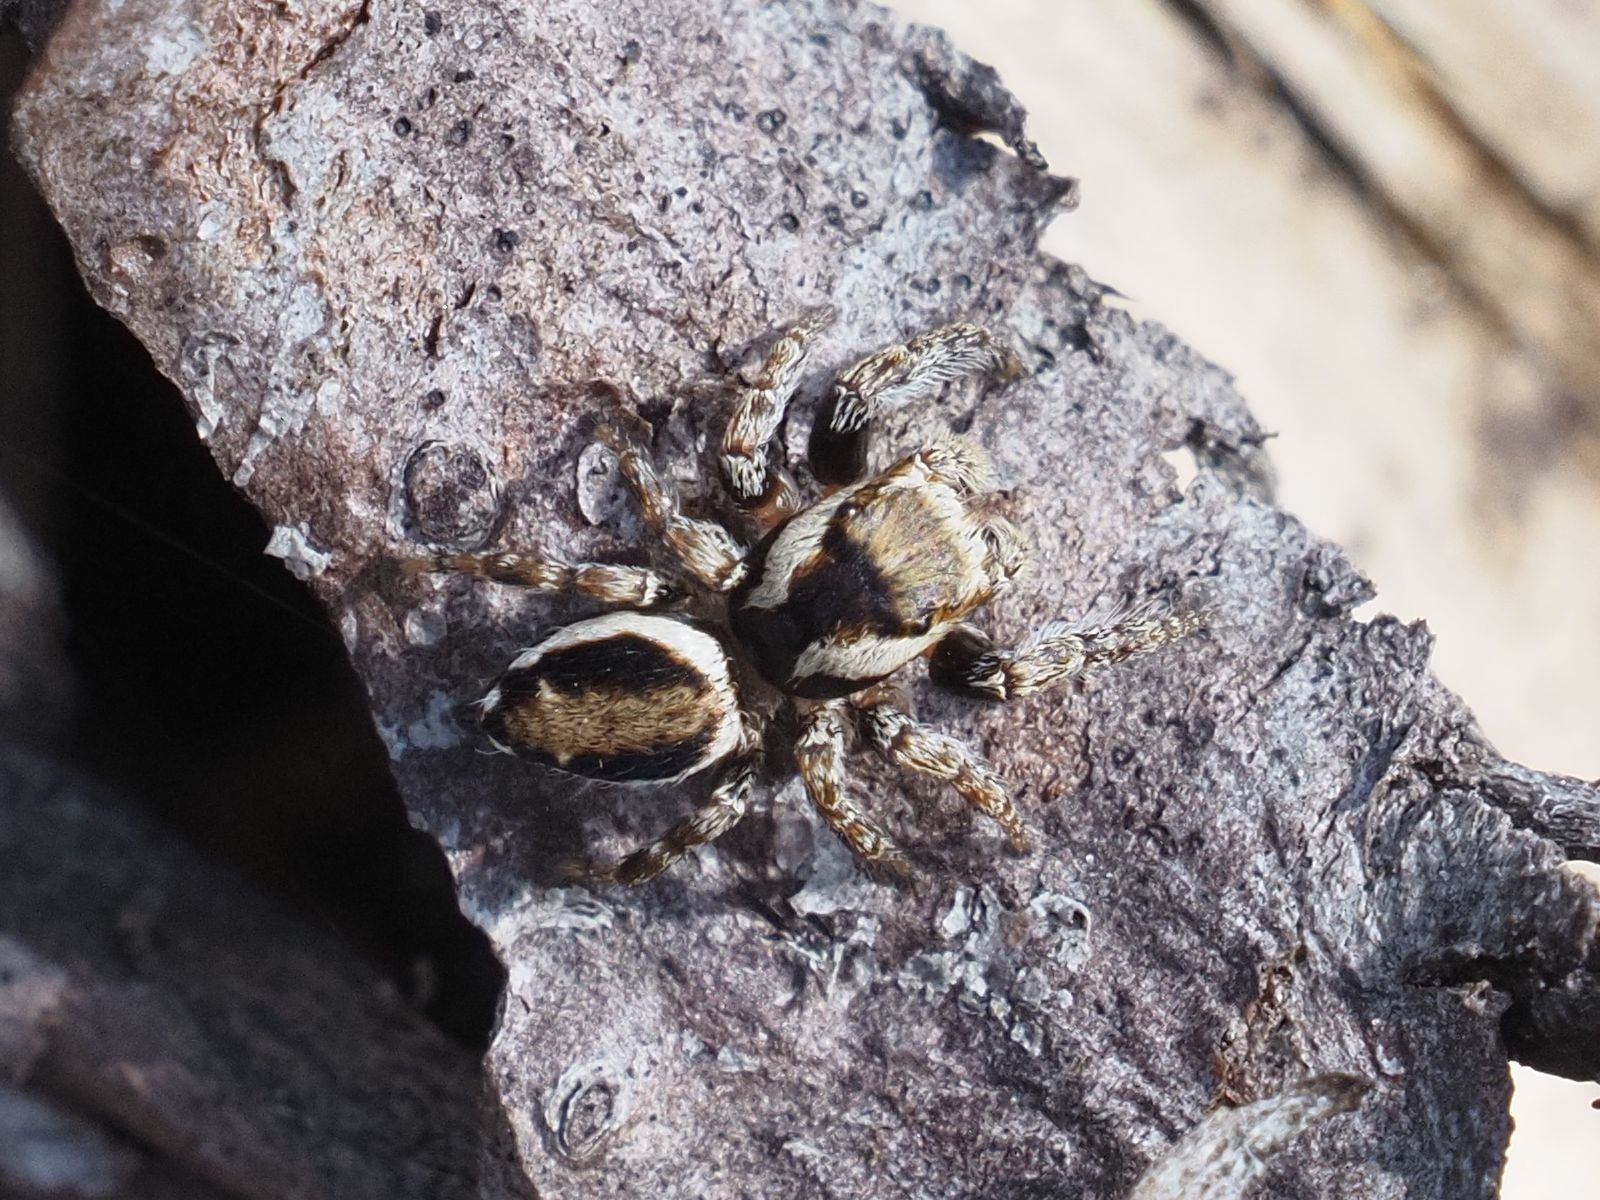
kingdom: Animalia
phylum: Arthropoda
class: Arachnida
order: Araneae
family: Salticidae
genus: Evarcha
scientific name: Evarcha falcata
